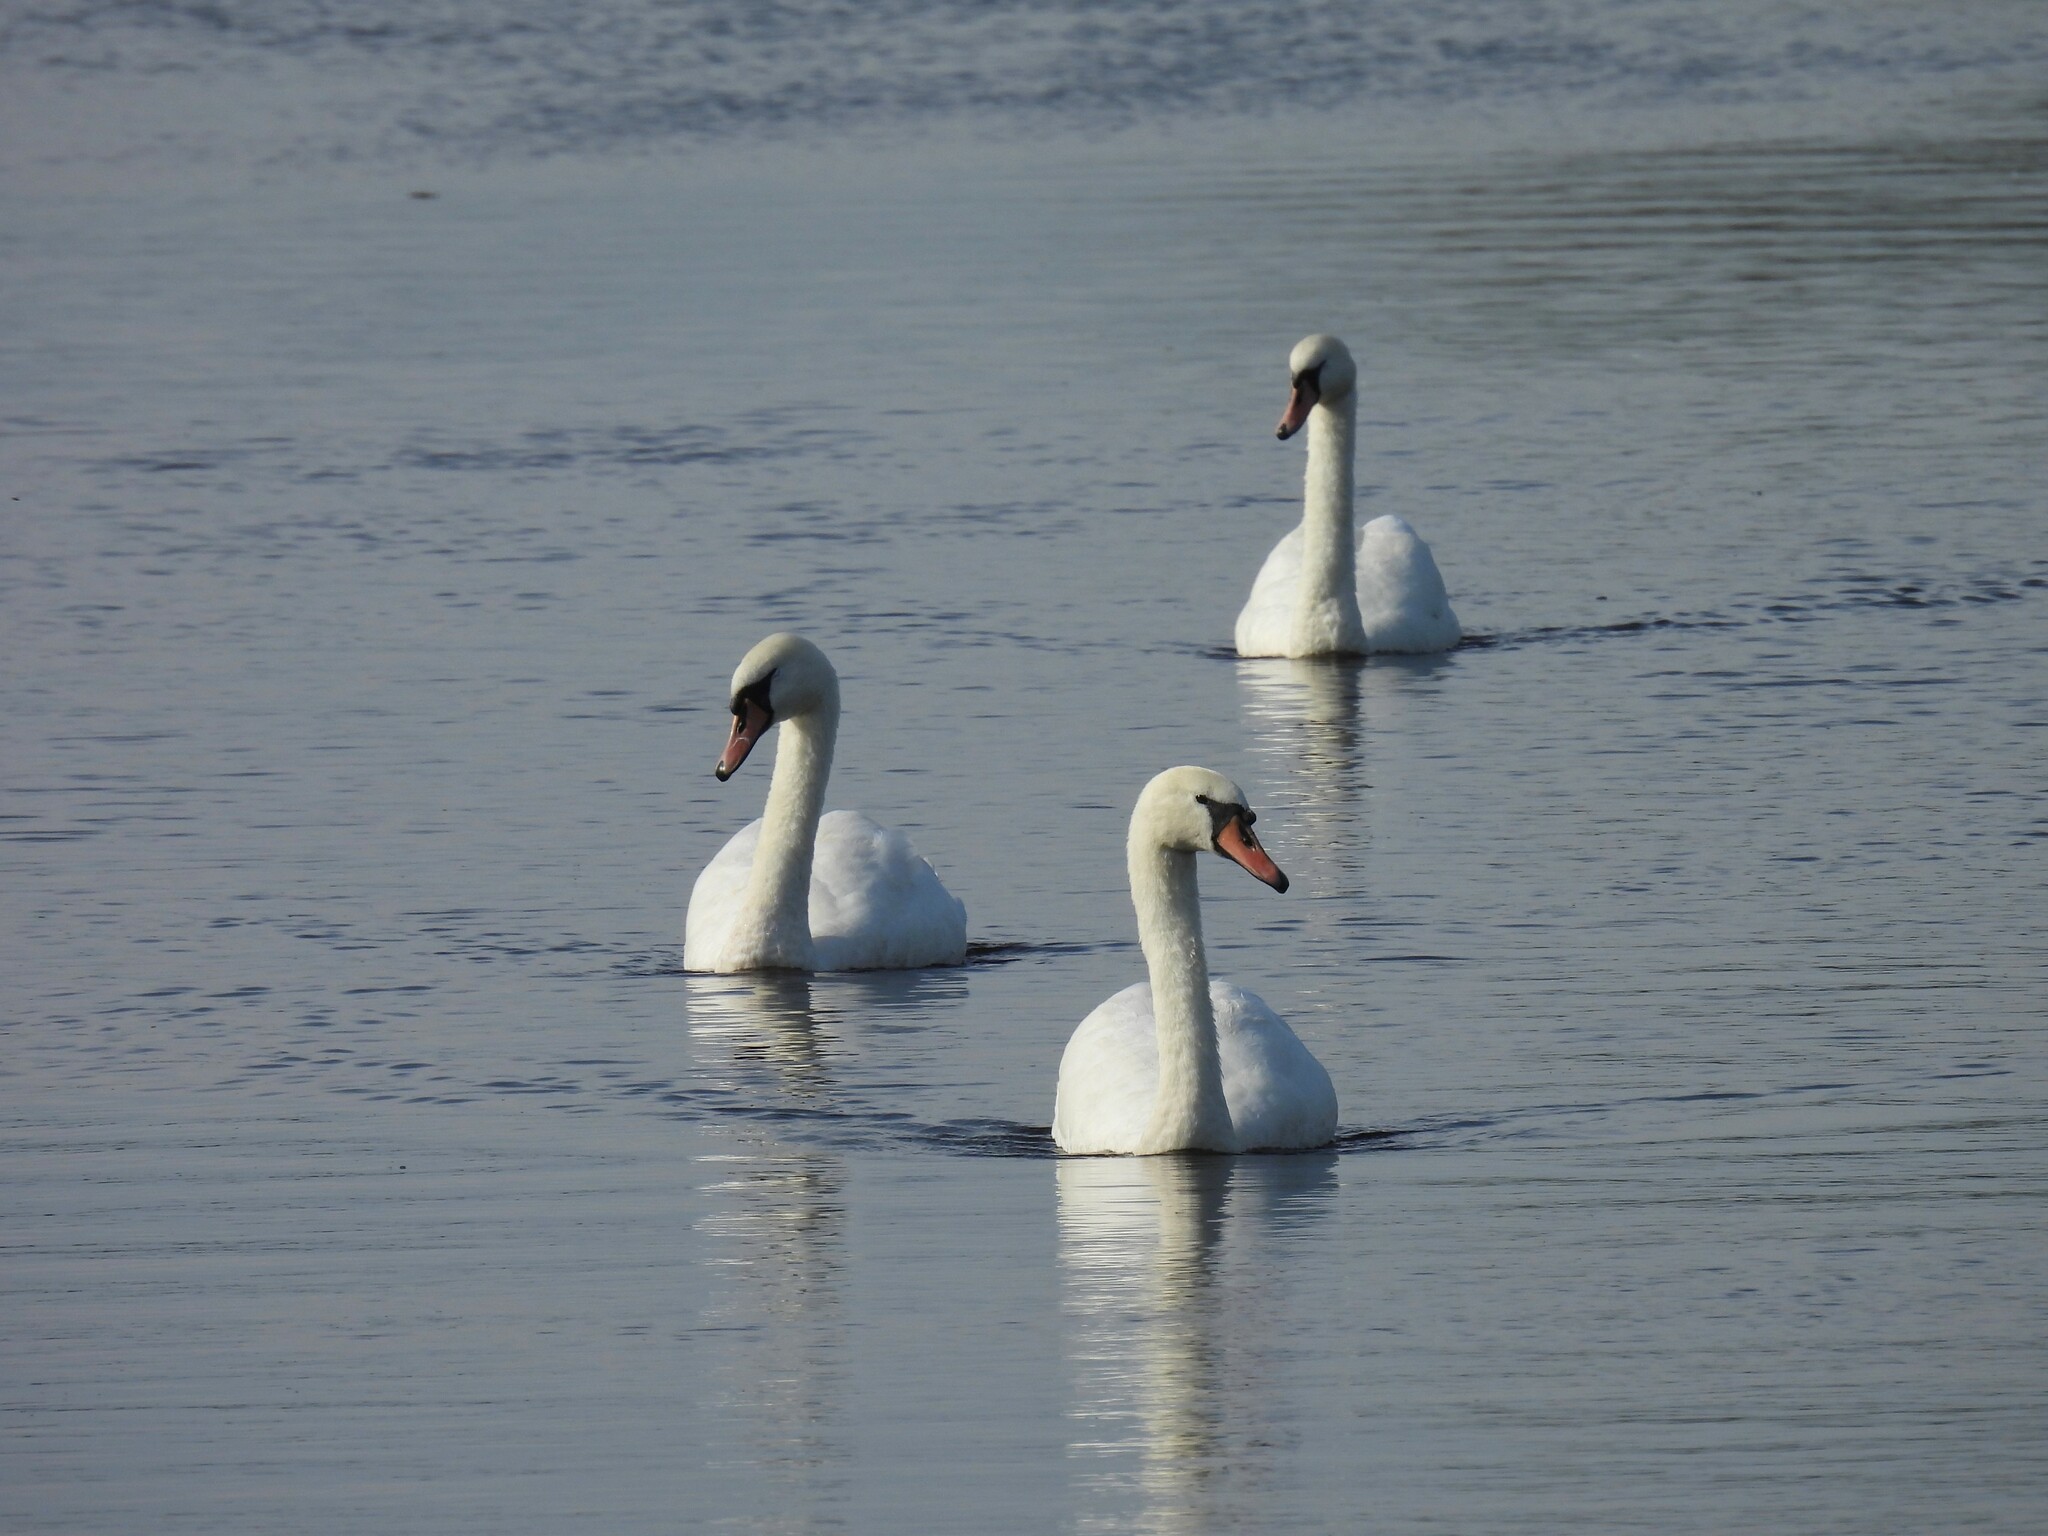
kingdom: Animalia
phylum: Chordata
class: Aves
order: Anseriformes
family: Anatidae
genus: Cygnus
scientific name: Cygnus olor
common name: Mute swan
